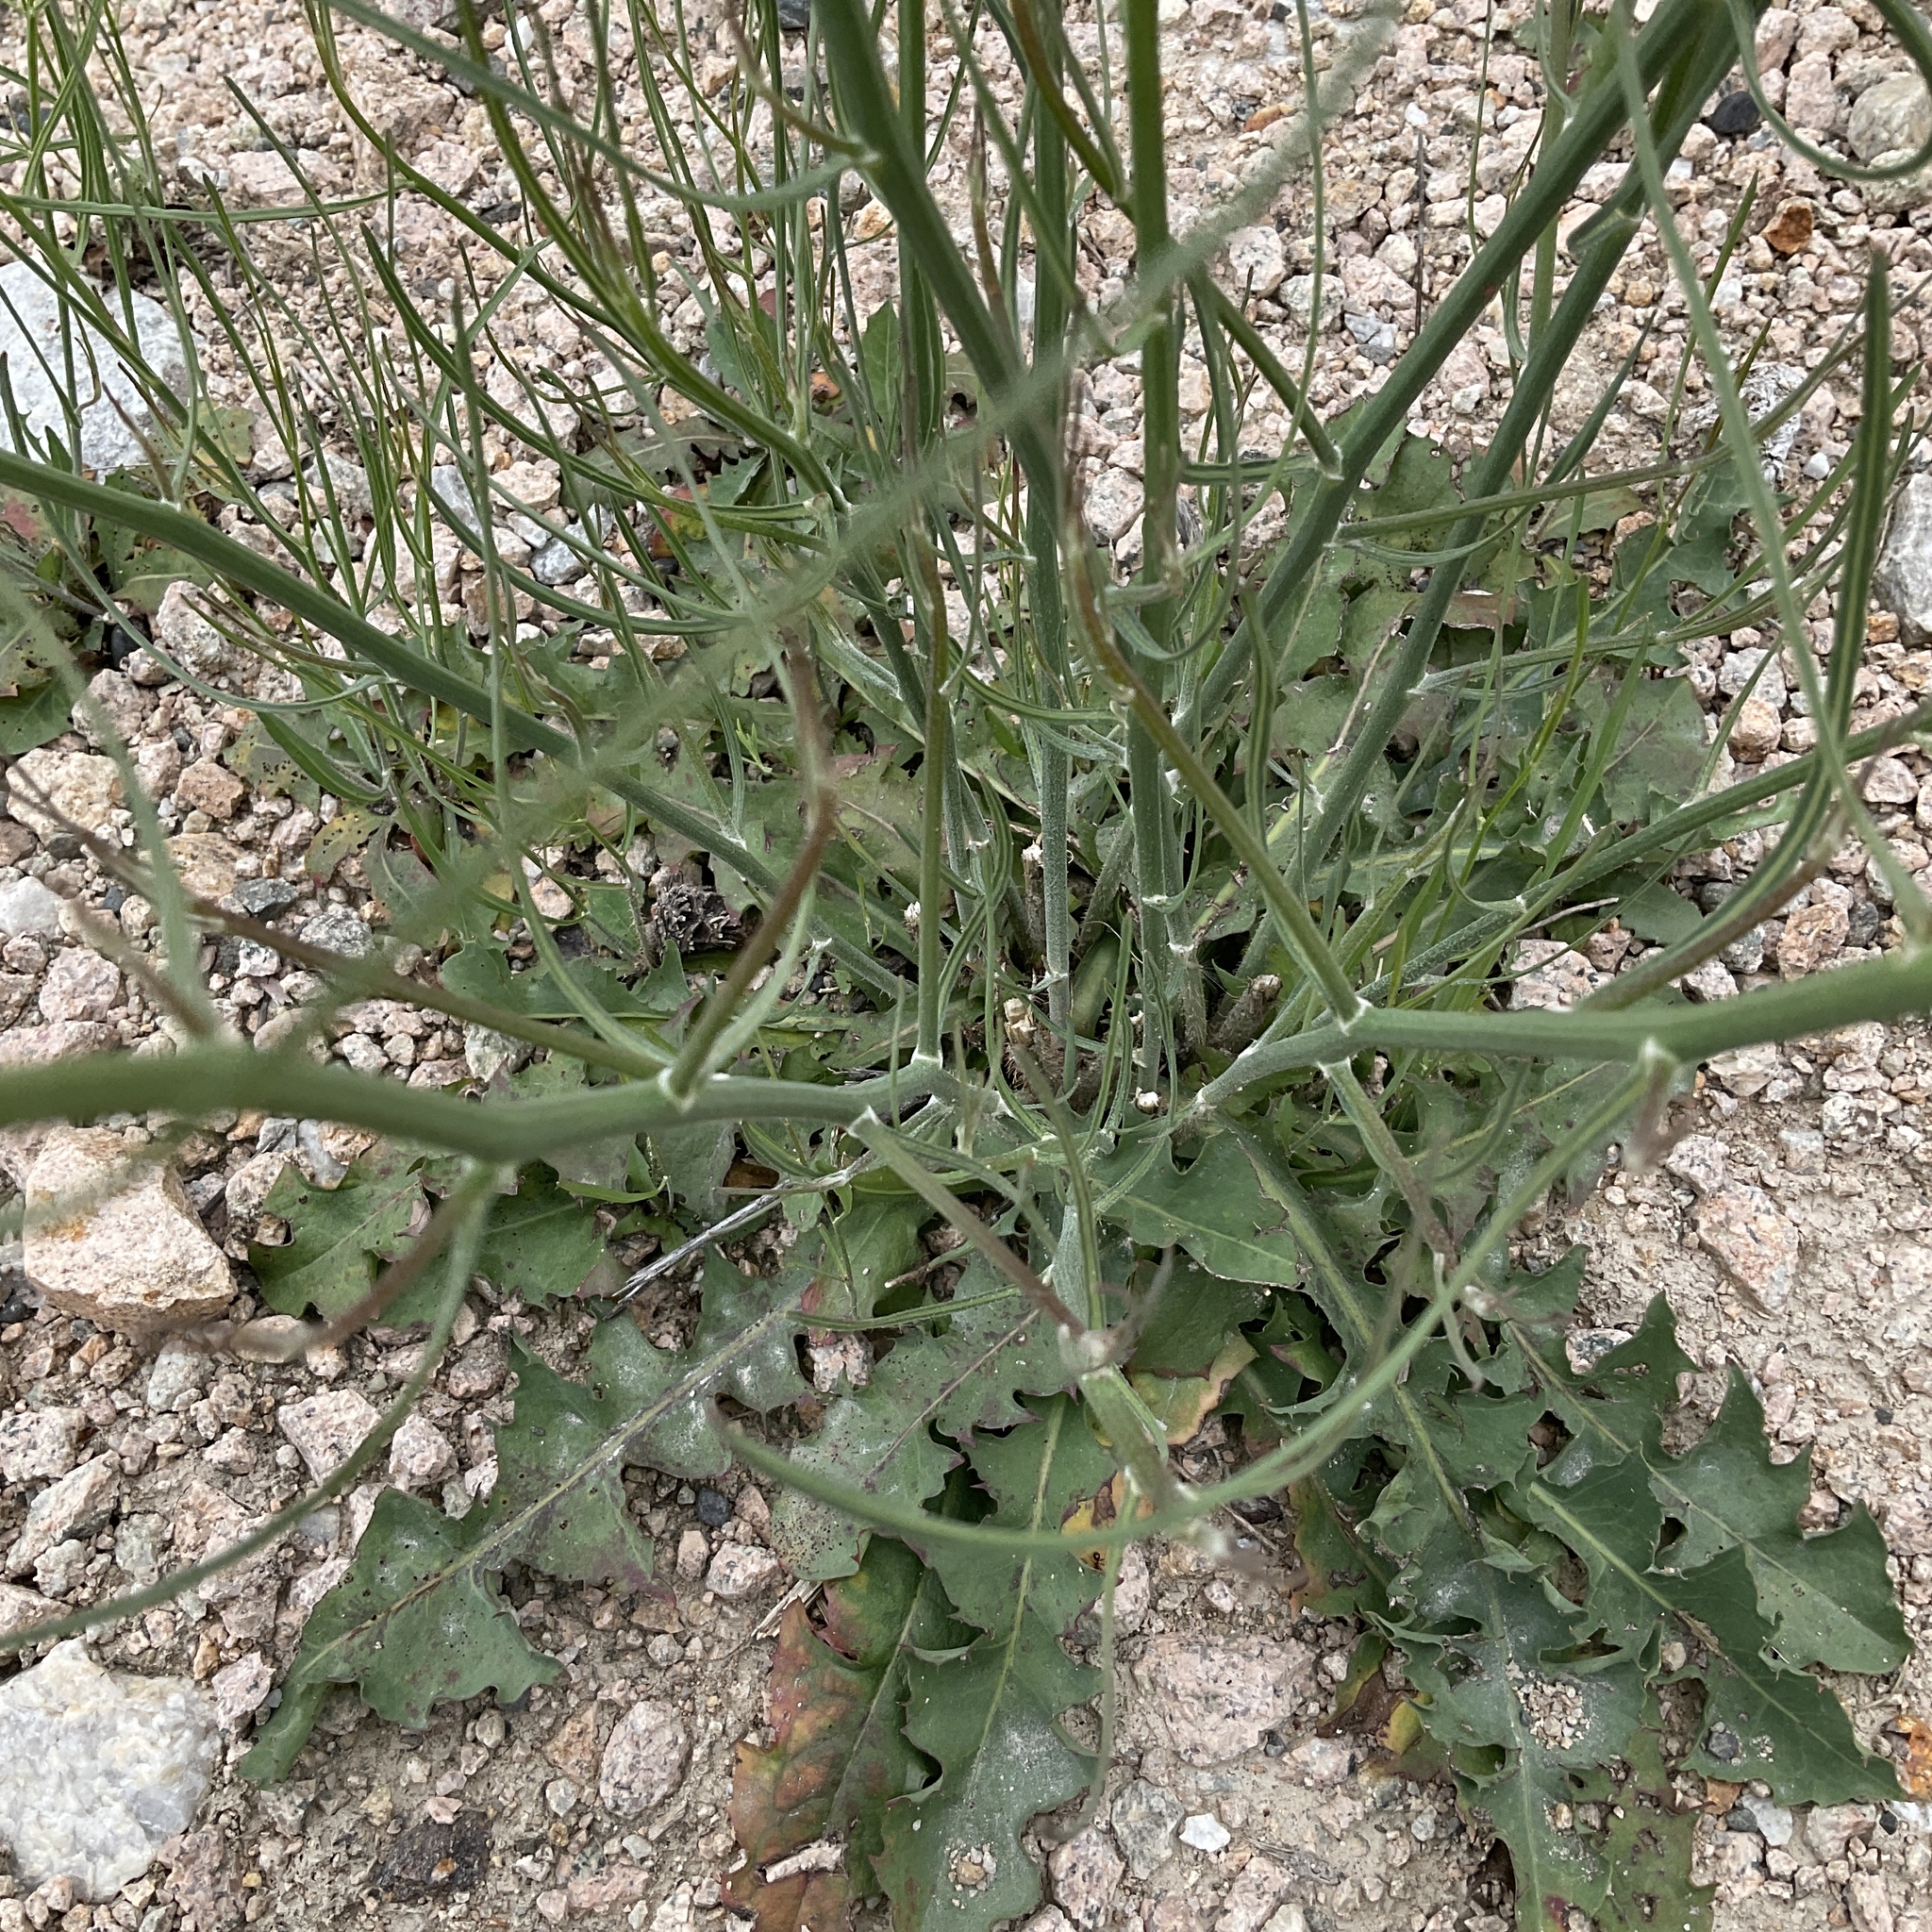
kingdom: Plantae
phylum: Tracheophyta
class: Magnoliopsida
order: Asterales
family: Asteraceae
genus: Chondrilla
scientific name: Chondrilla juncea
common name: Skeleton weed
